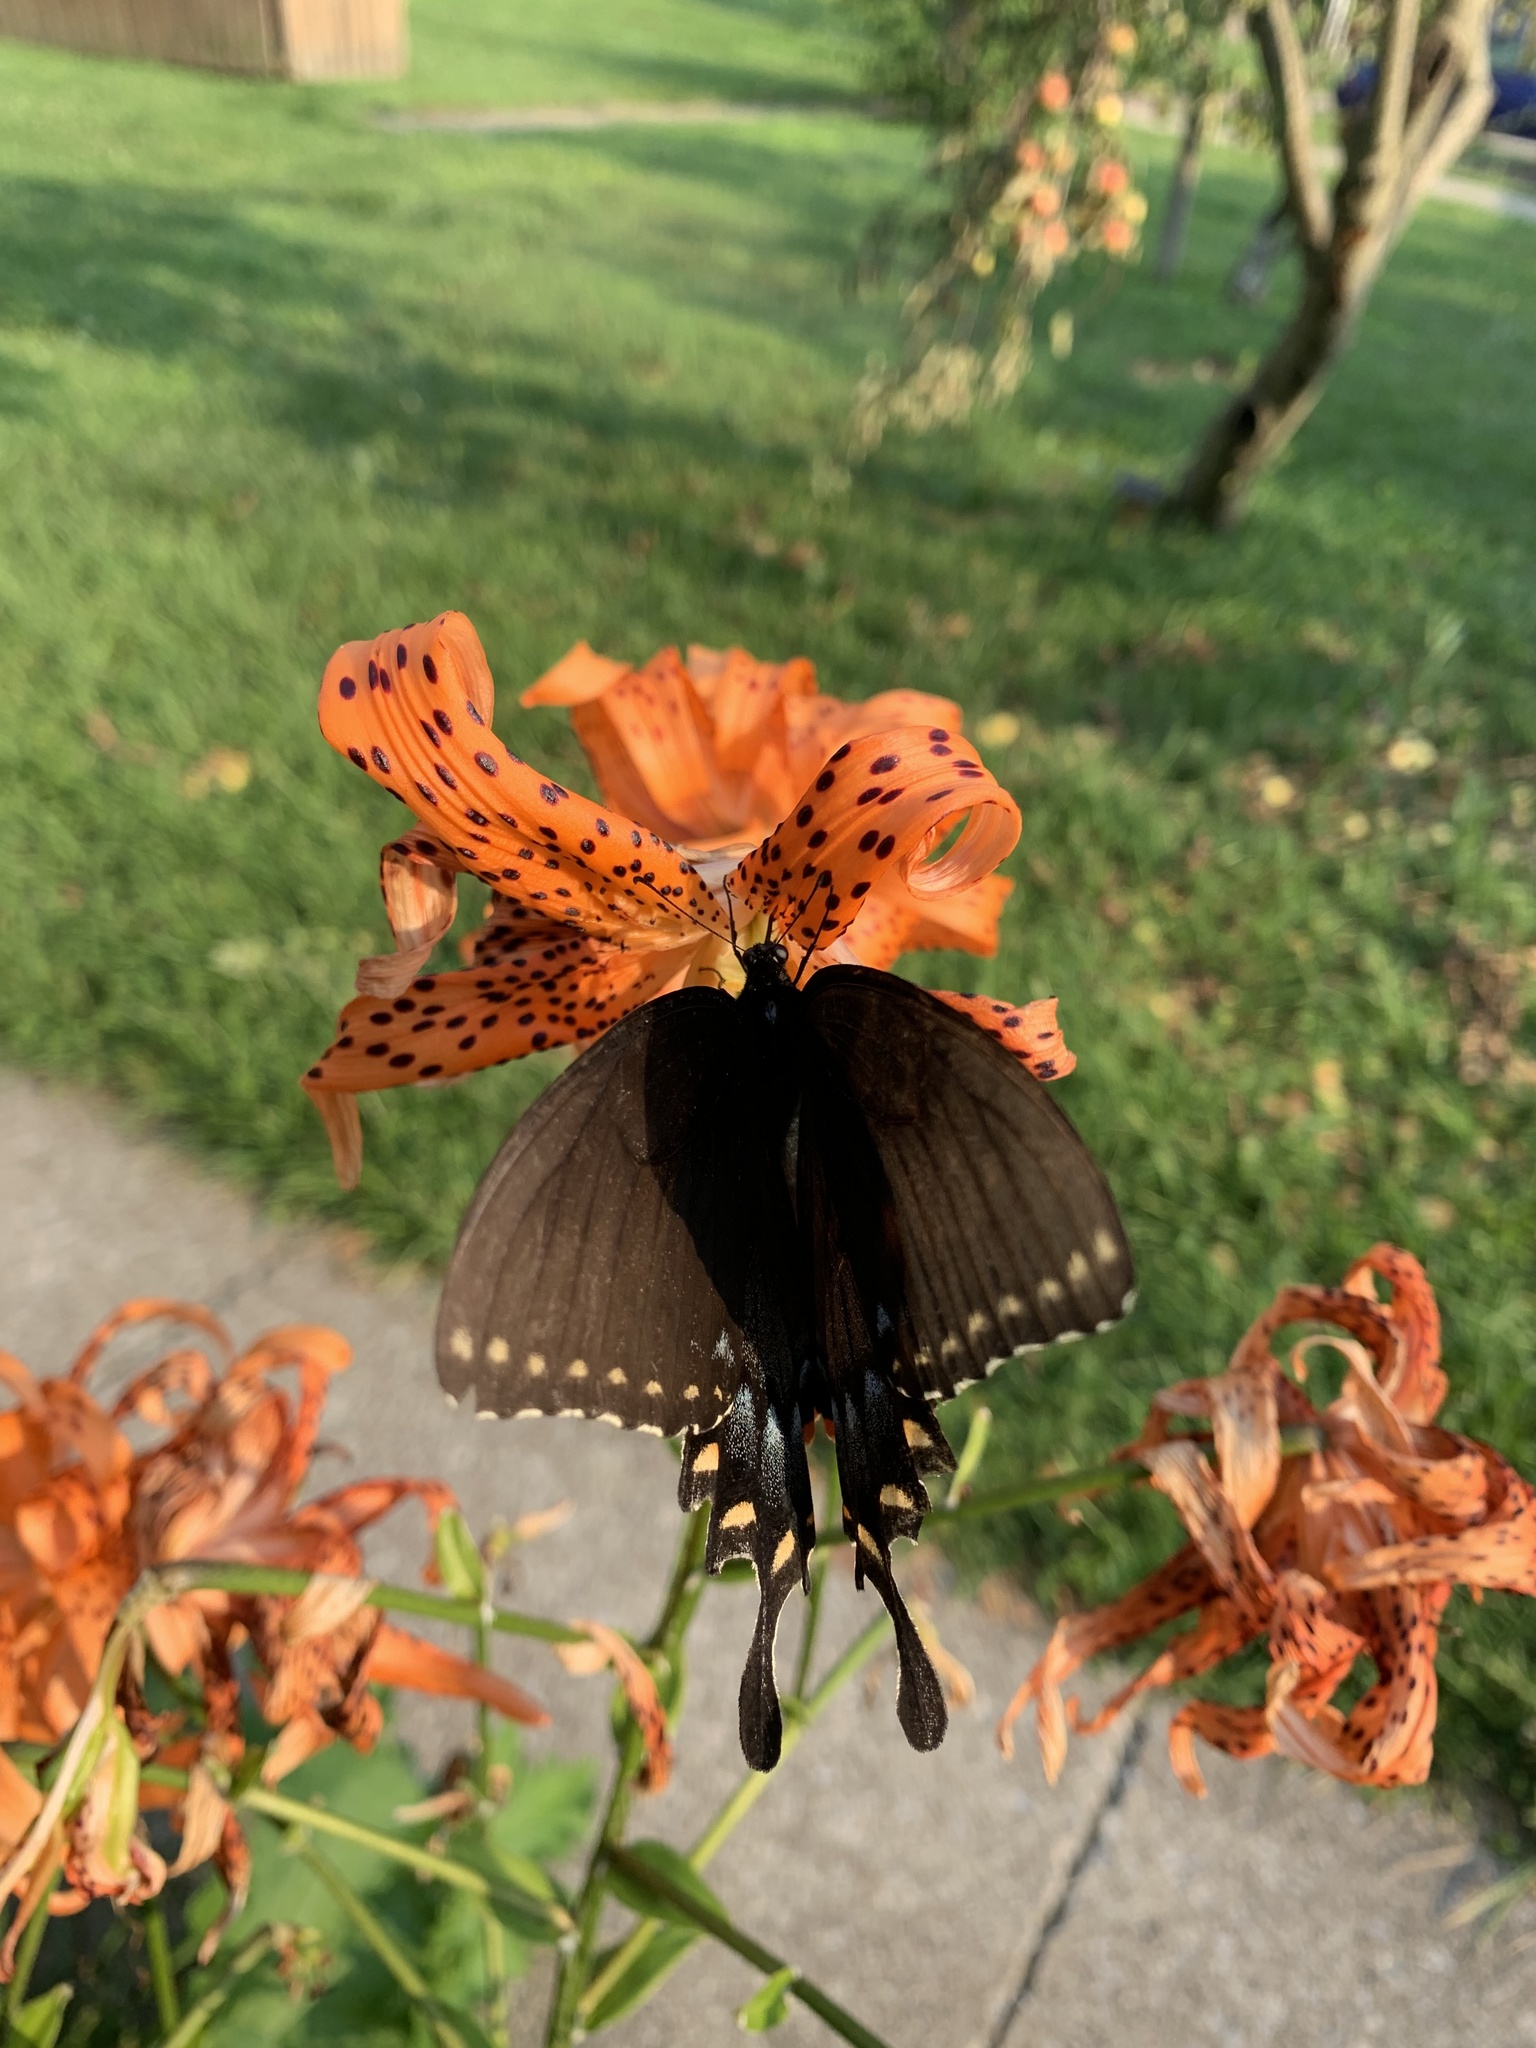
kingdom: Animalia
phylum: Arthropoda
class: Insecta
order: Lepidoptera
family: Papilionidae
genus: Papilio
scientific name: Papilio glaucus
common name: Tiger swallowtail
